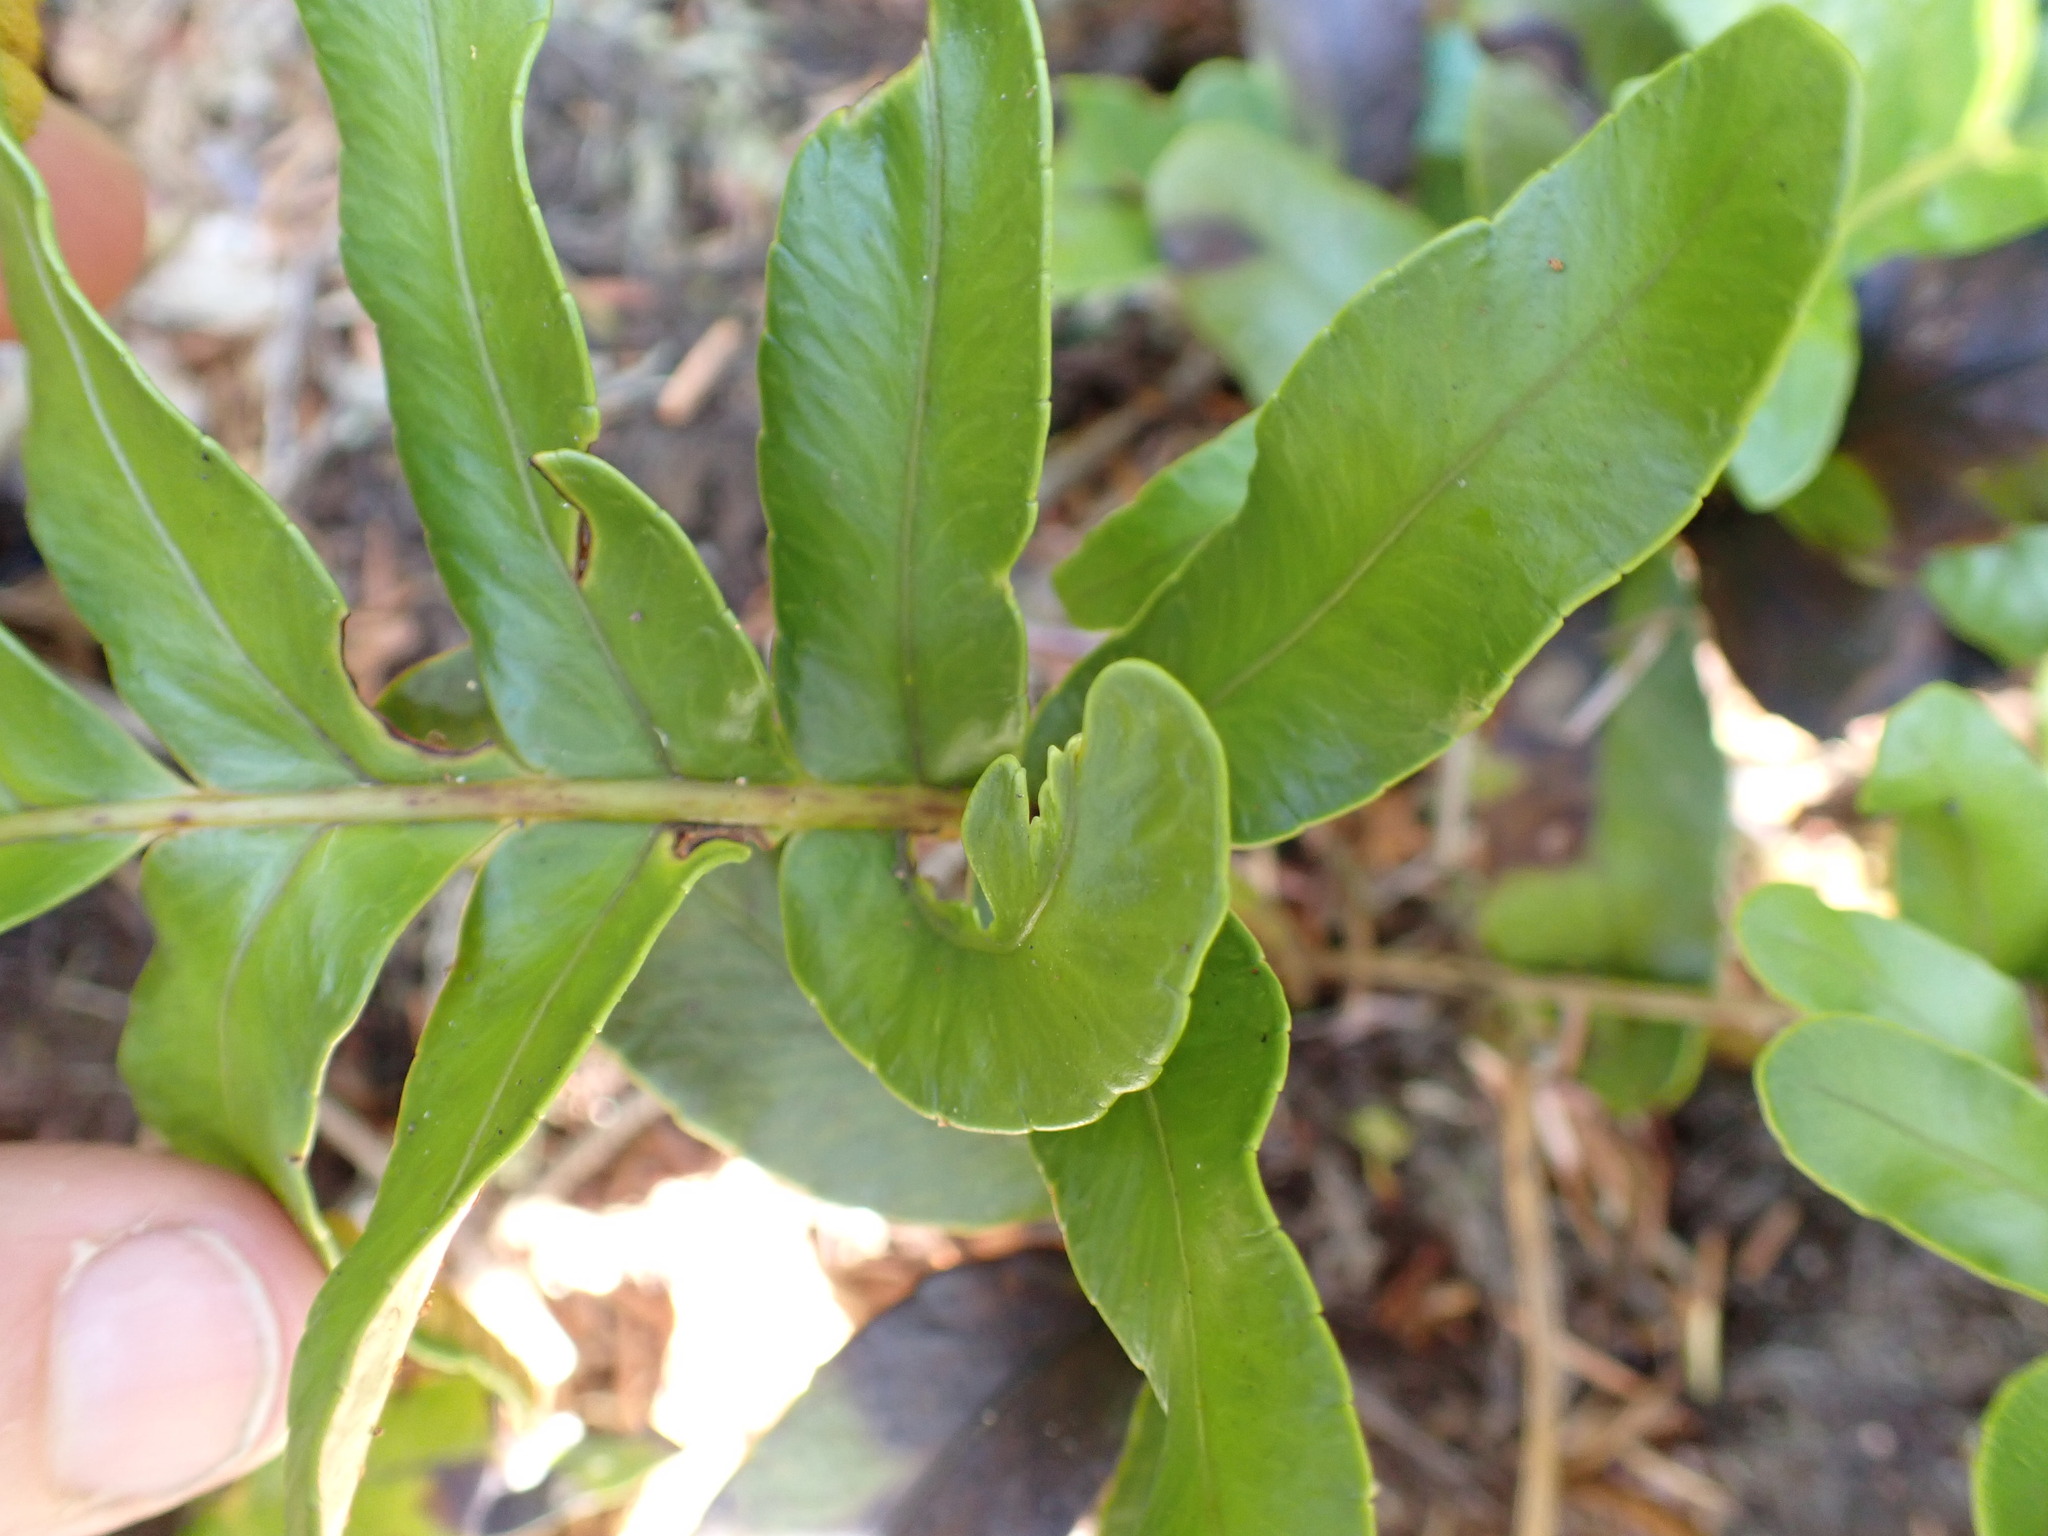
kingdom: Plantae
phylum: Tracheophyta
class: Polypodiopsida
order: Polypodiales
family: Polypodiaceae
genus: Polypodium
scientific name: Polypodium scouleri
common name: Scouler's polypody
